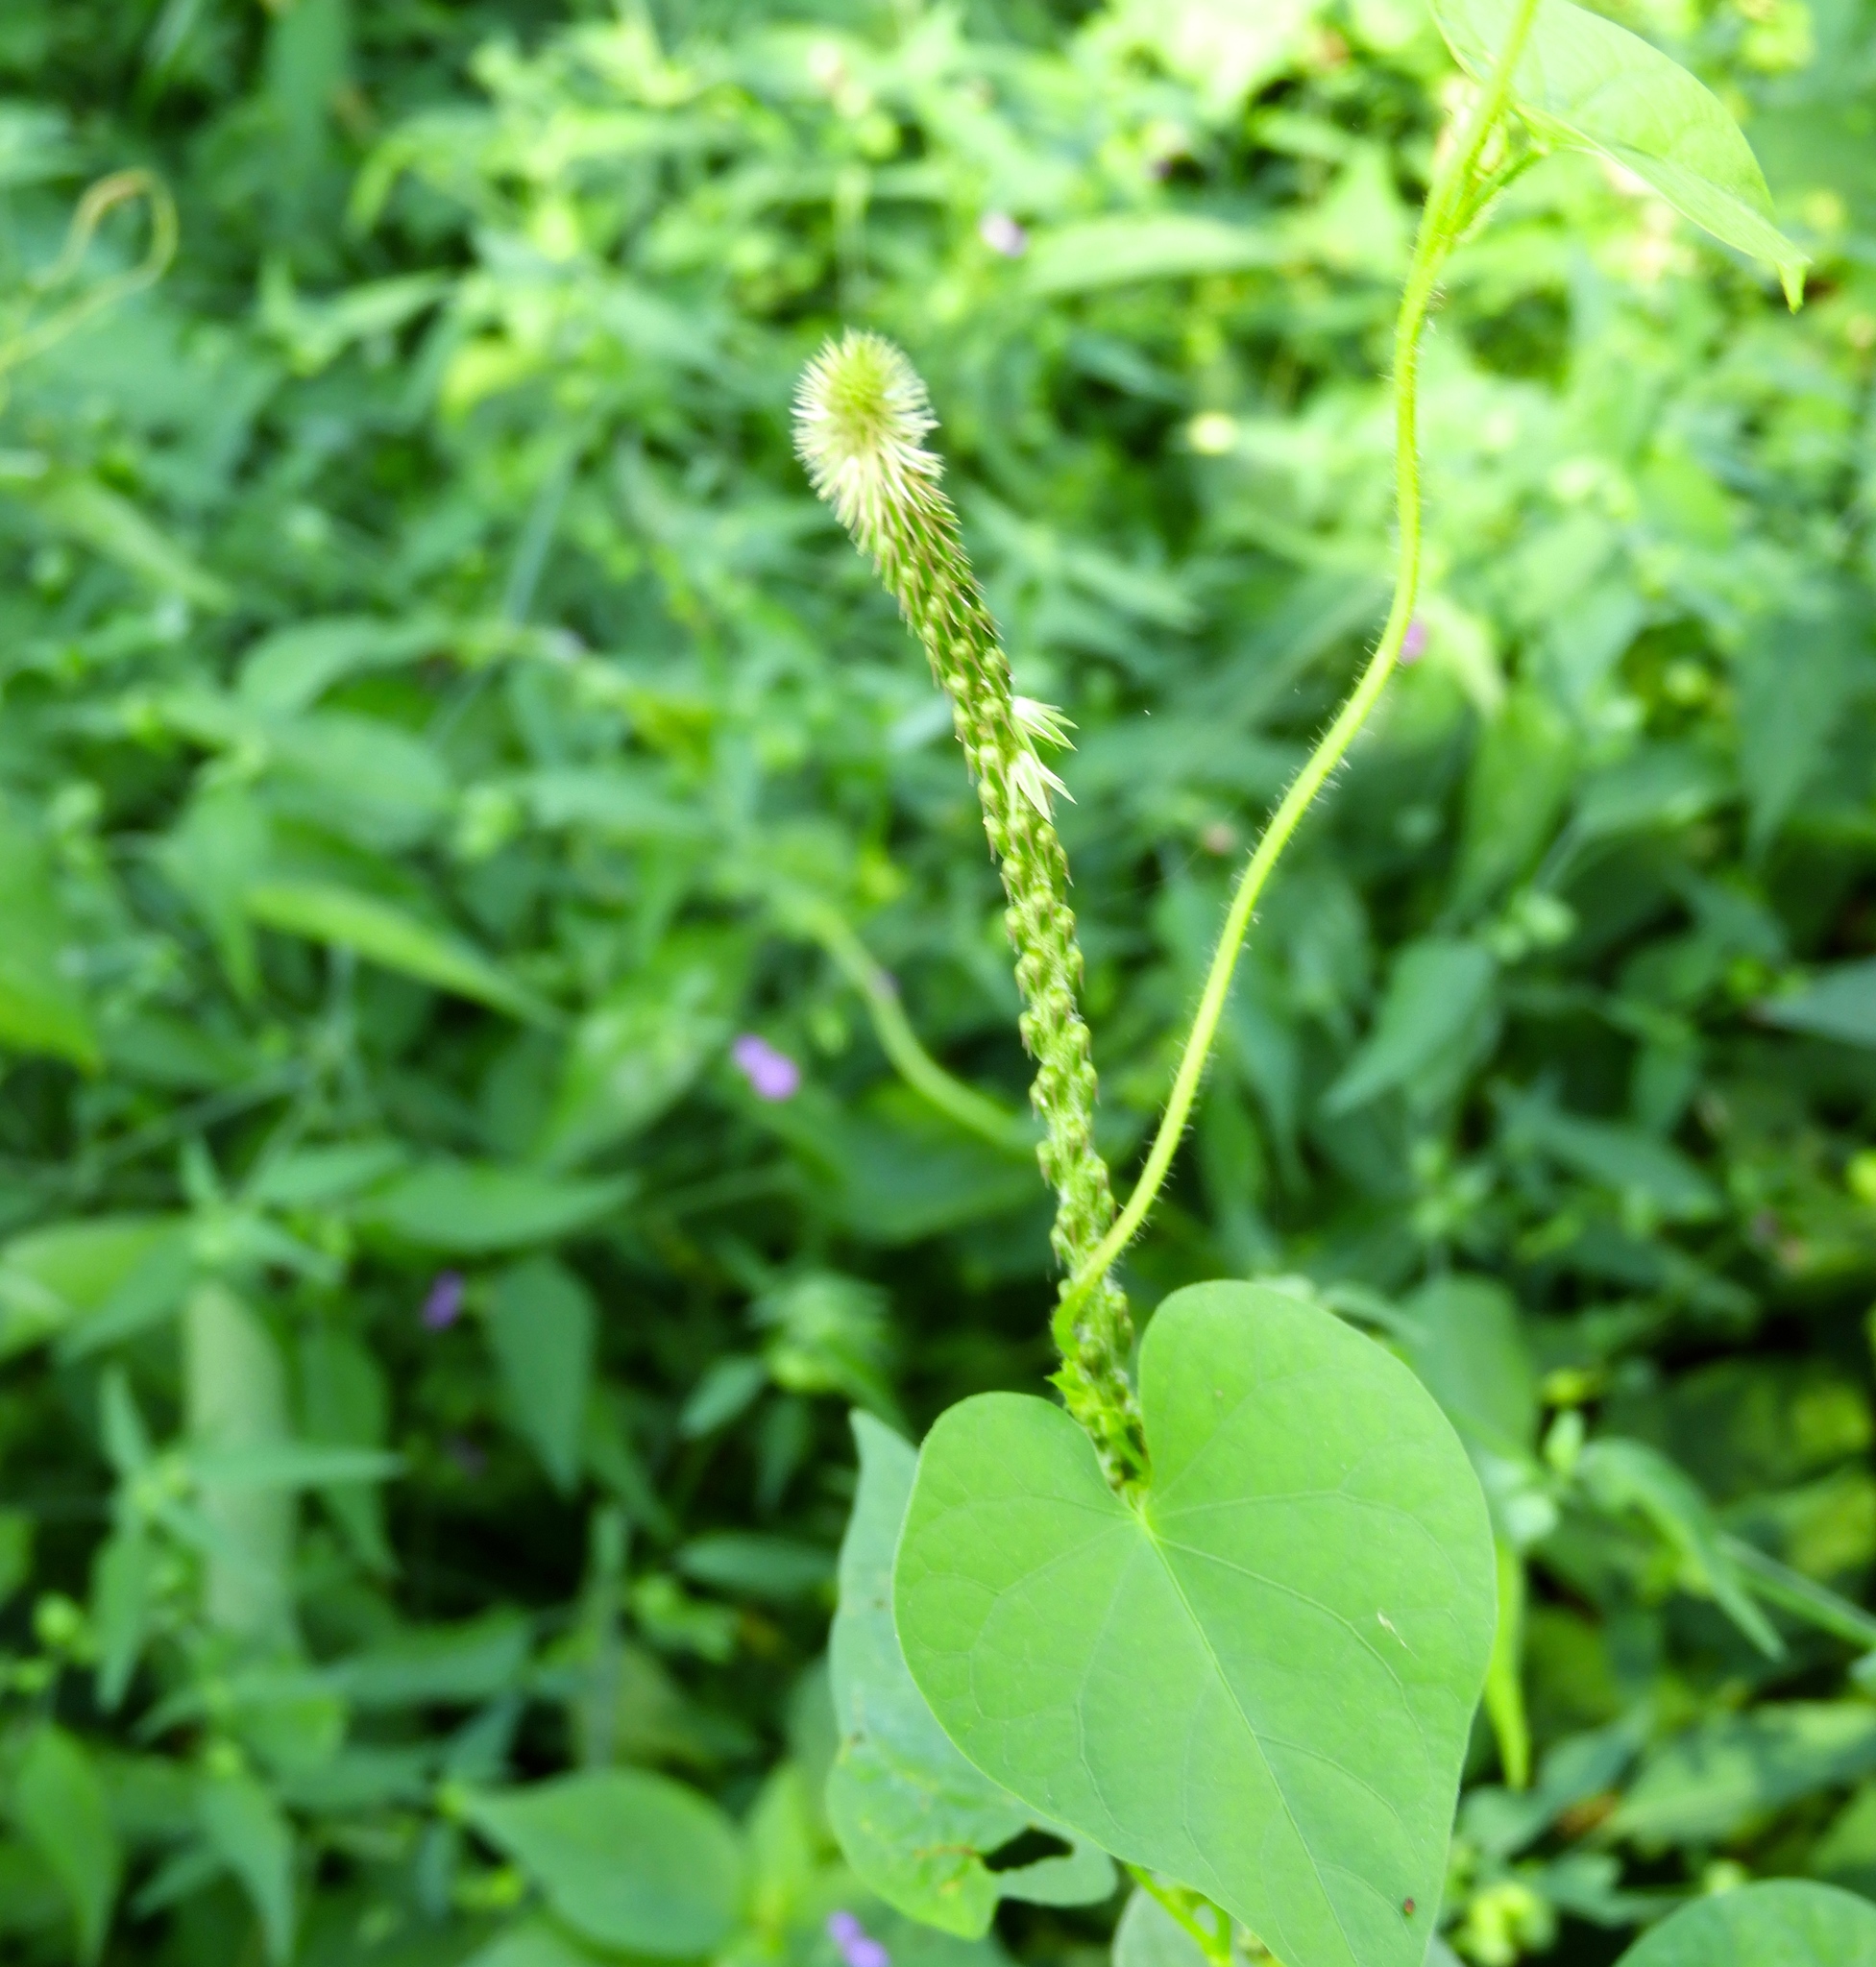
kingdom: Plantae
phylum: Tracheophyta
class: Magnoliopsida
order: Caryophyllales
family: Amaranthaceae
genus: Achyranthes
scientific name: Achyranthes aspera
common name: Devil's horsewhip
